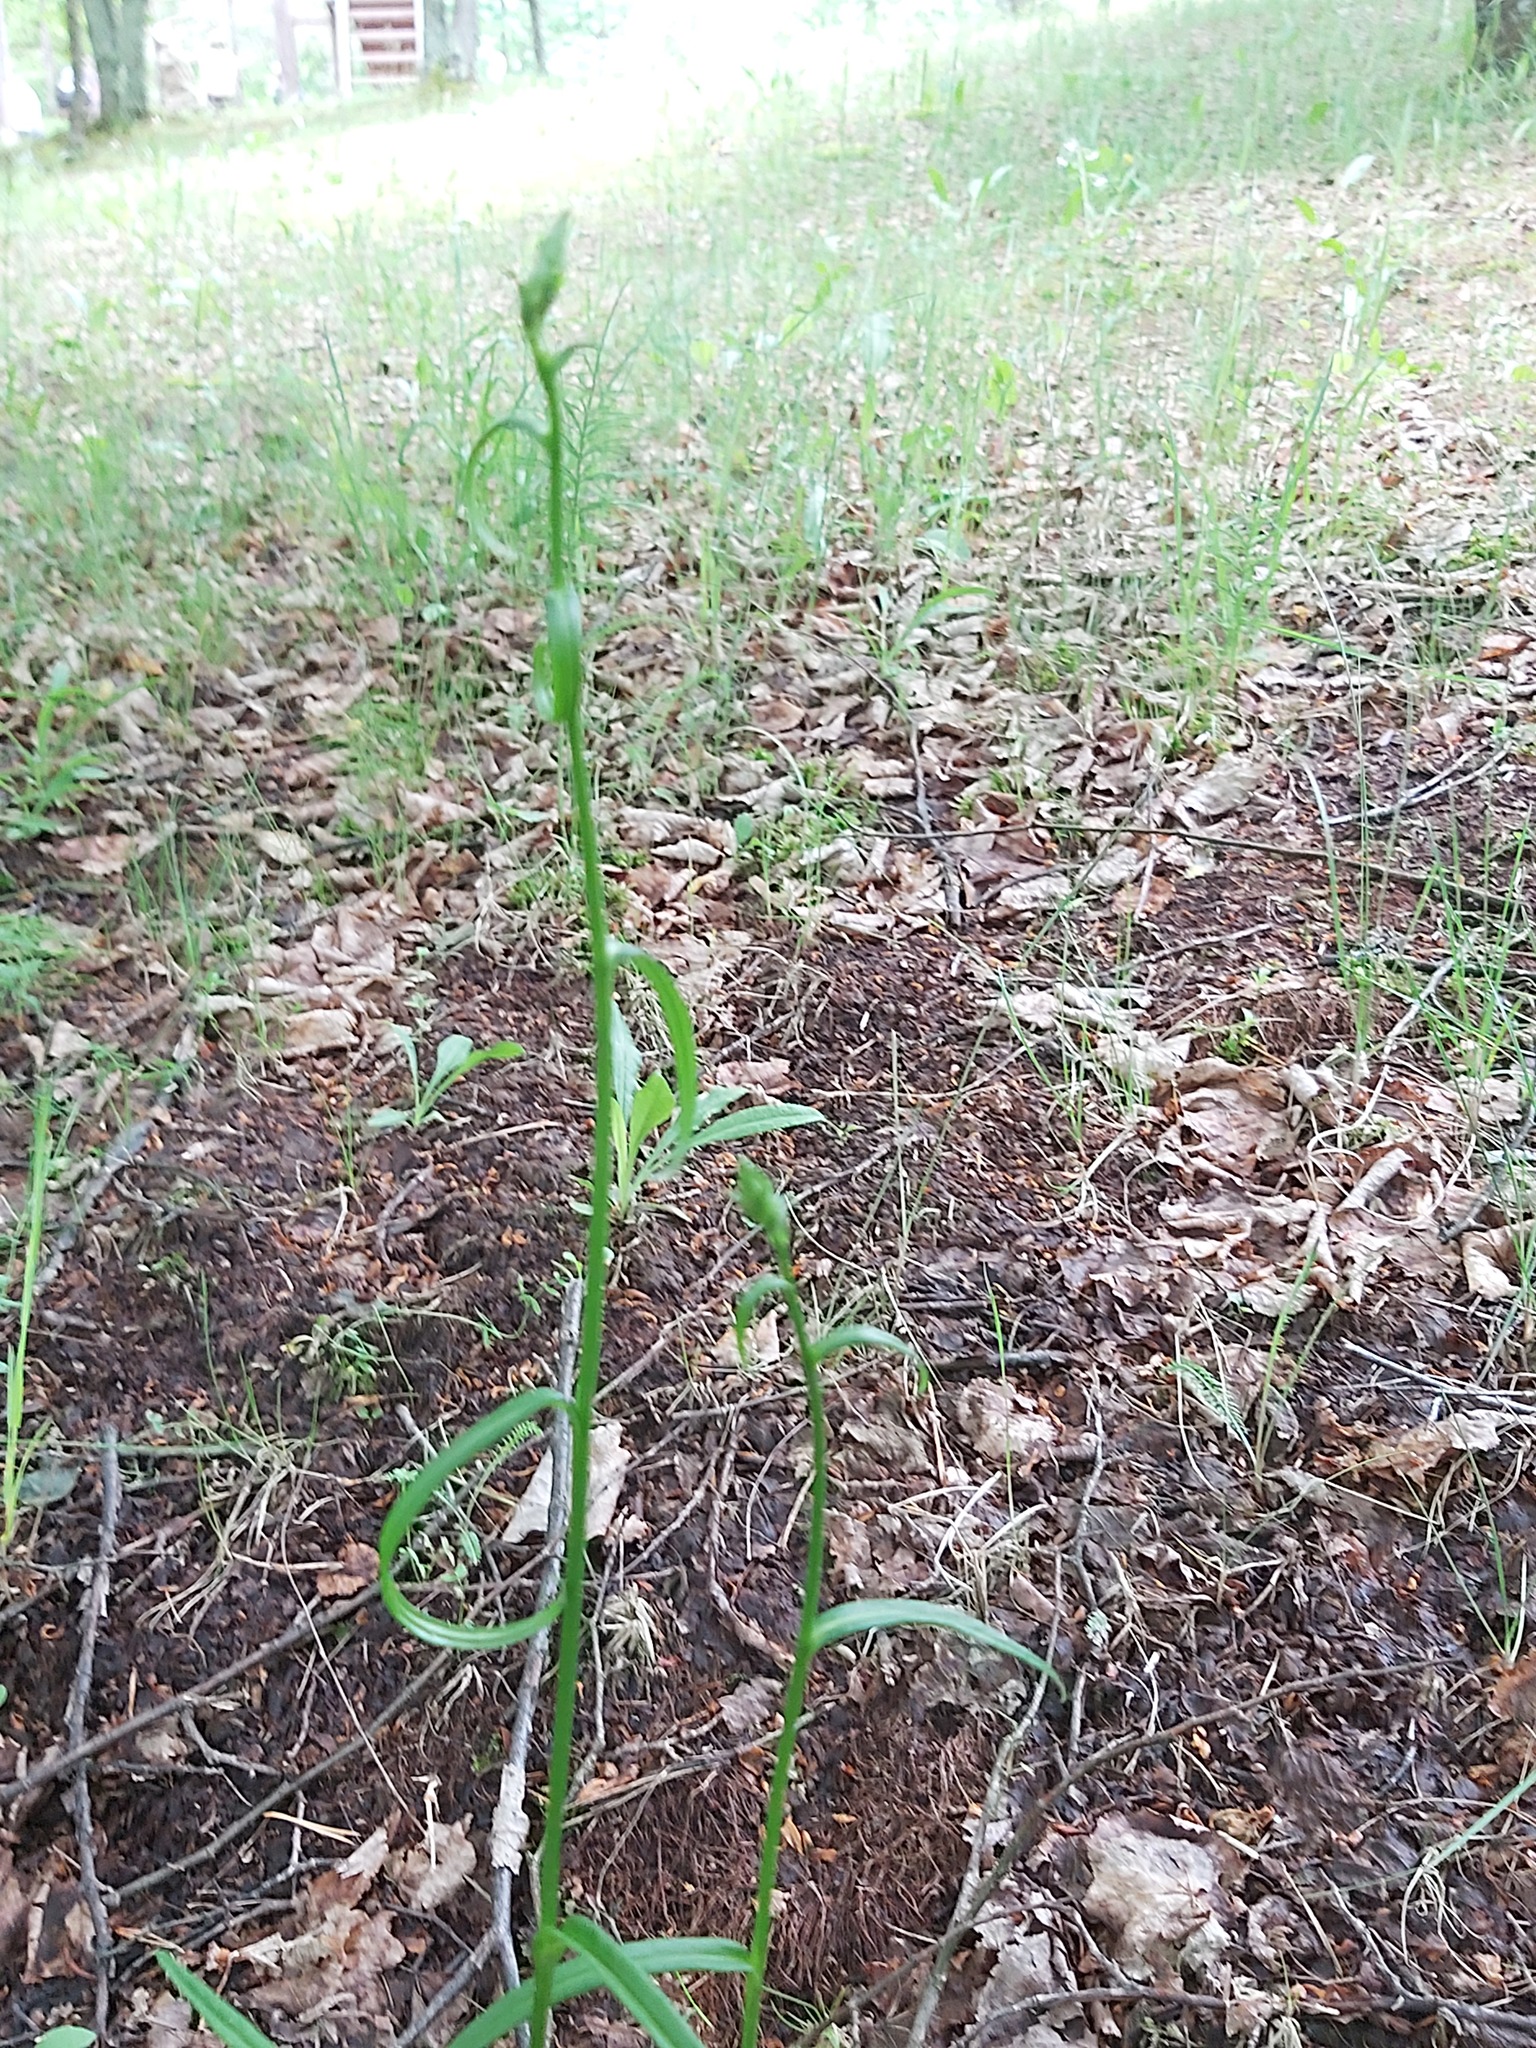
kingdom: Plantae
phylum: Tracheophyta
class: Magnoliopsida
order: Asterales
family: Campanulaceae
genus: Campanula
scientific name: Campanula persicifolia
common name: Peach-leaved bellflower
